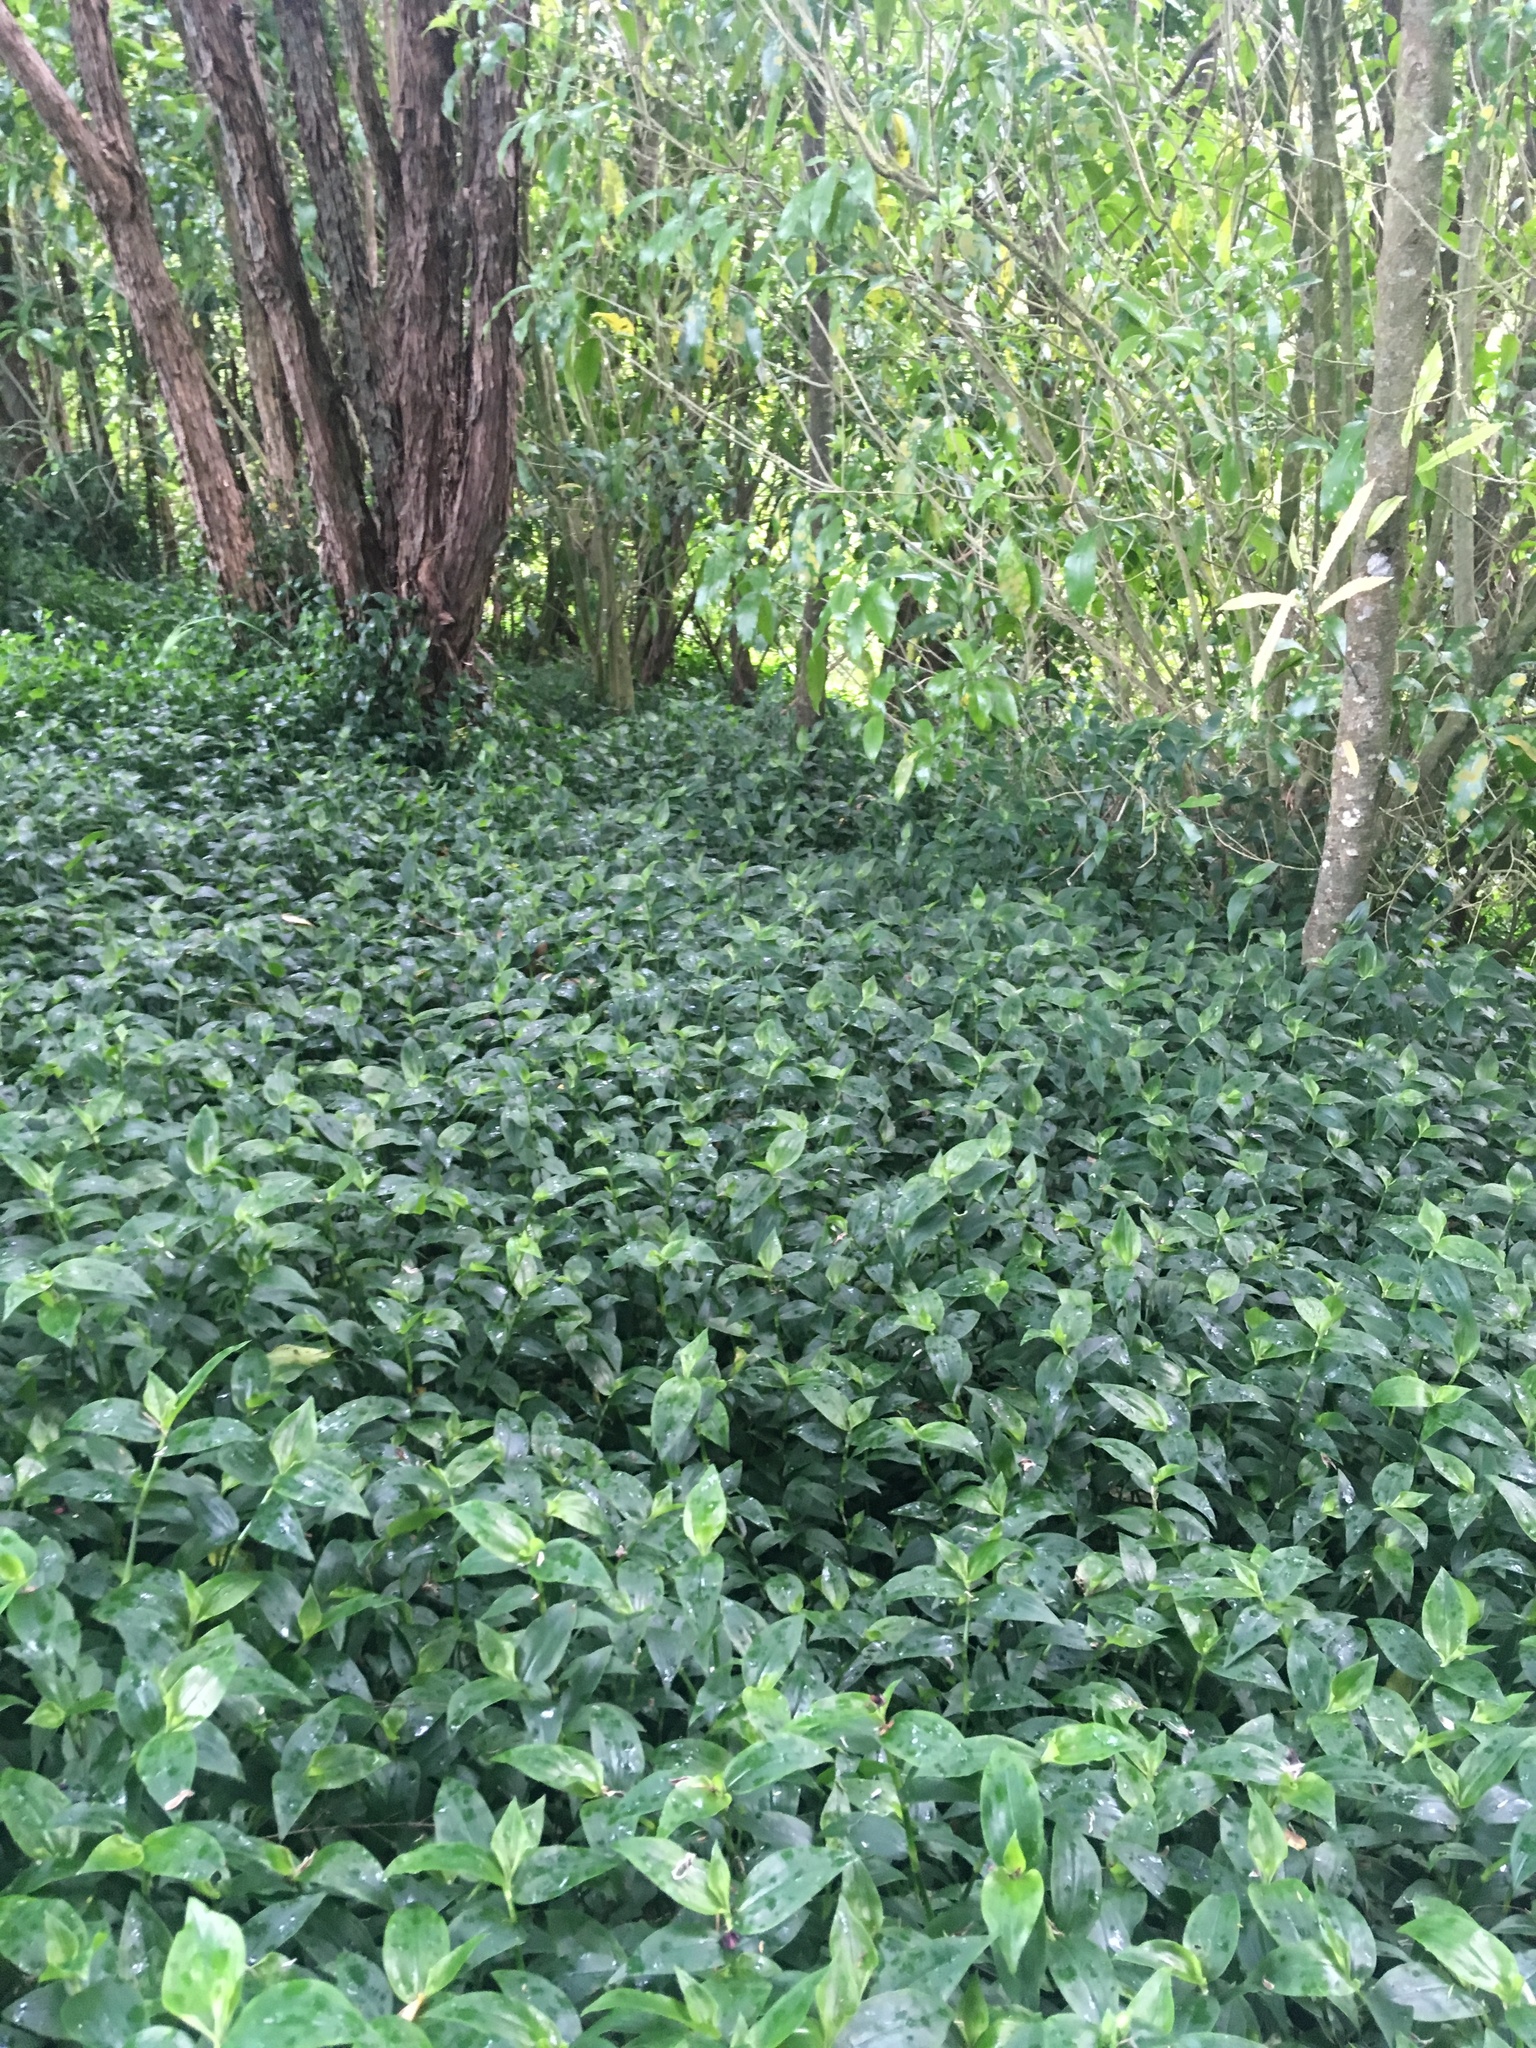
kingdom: Plantae
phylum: Tracheophyta
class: Liliopsida
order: Commelinales
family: Commelinaceae
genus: Tradescantia
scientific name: Tradescantia fluminensis
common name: Wandering-jew
